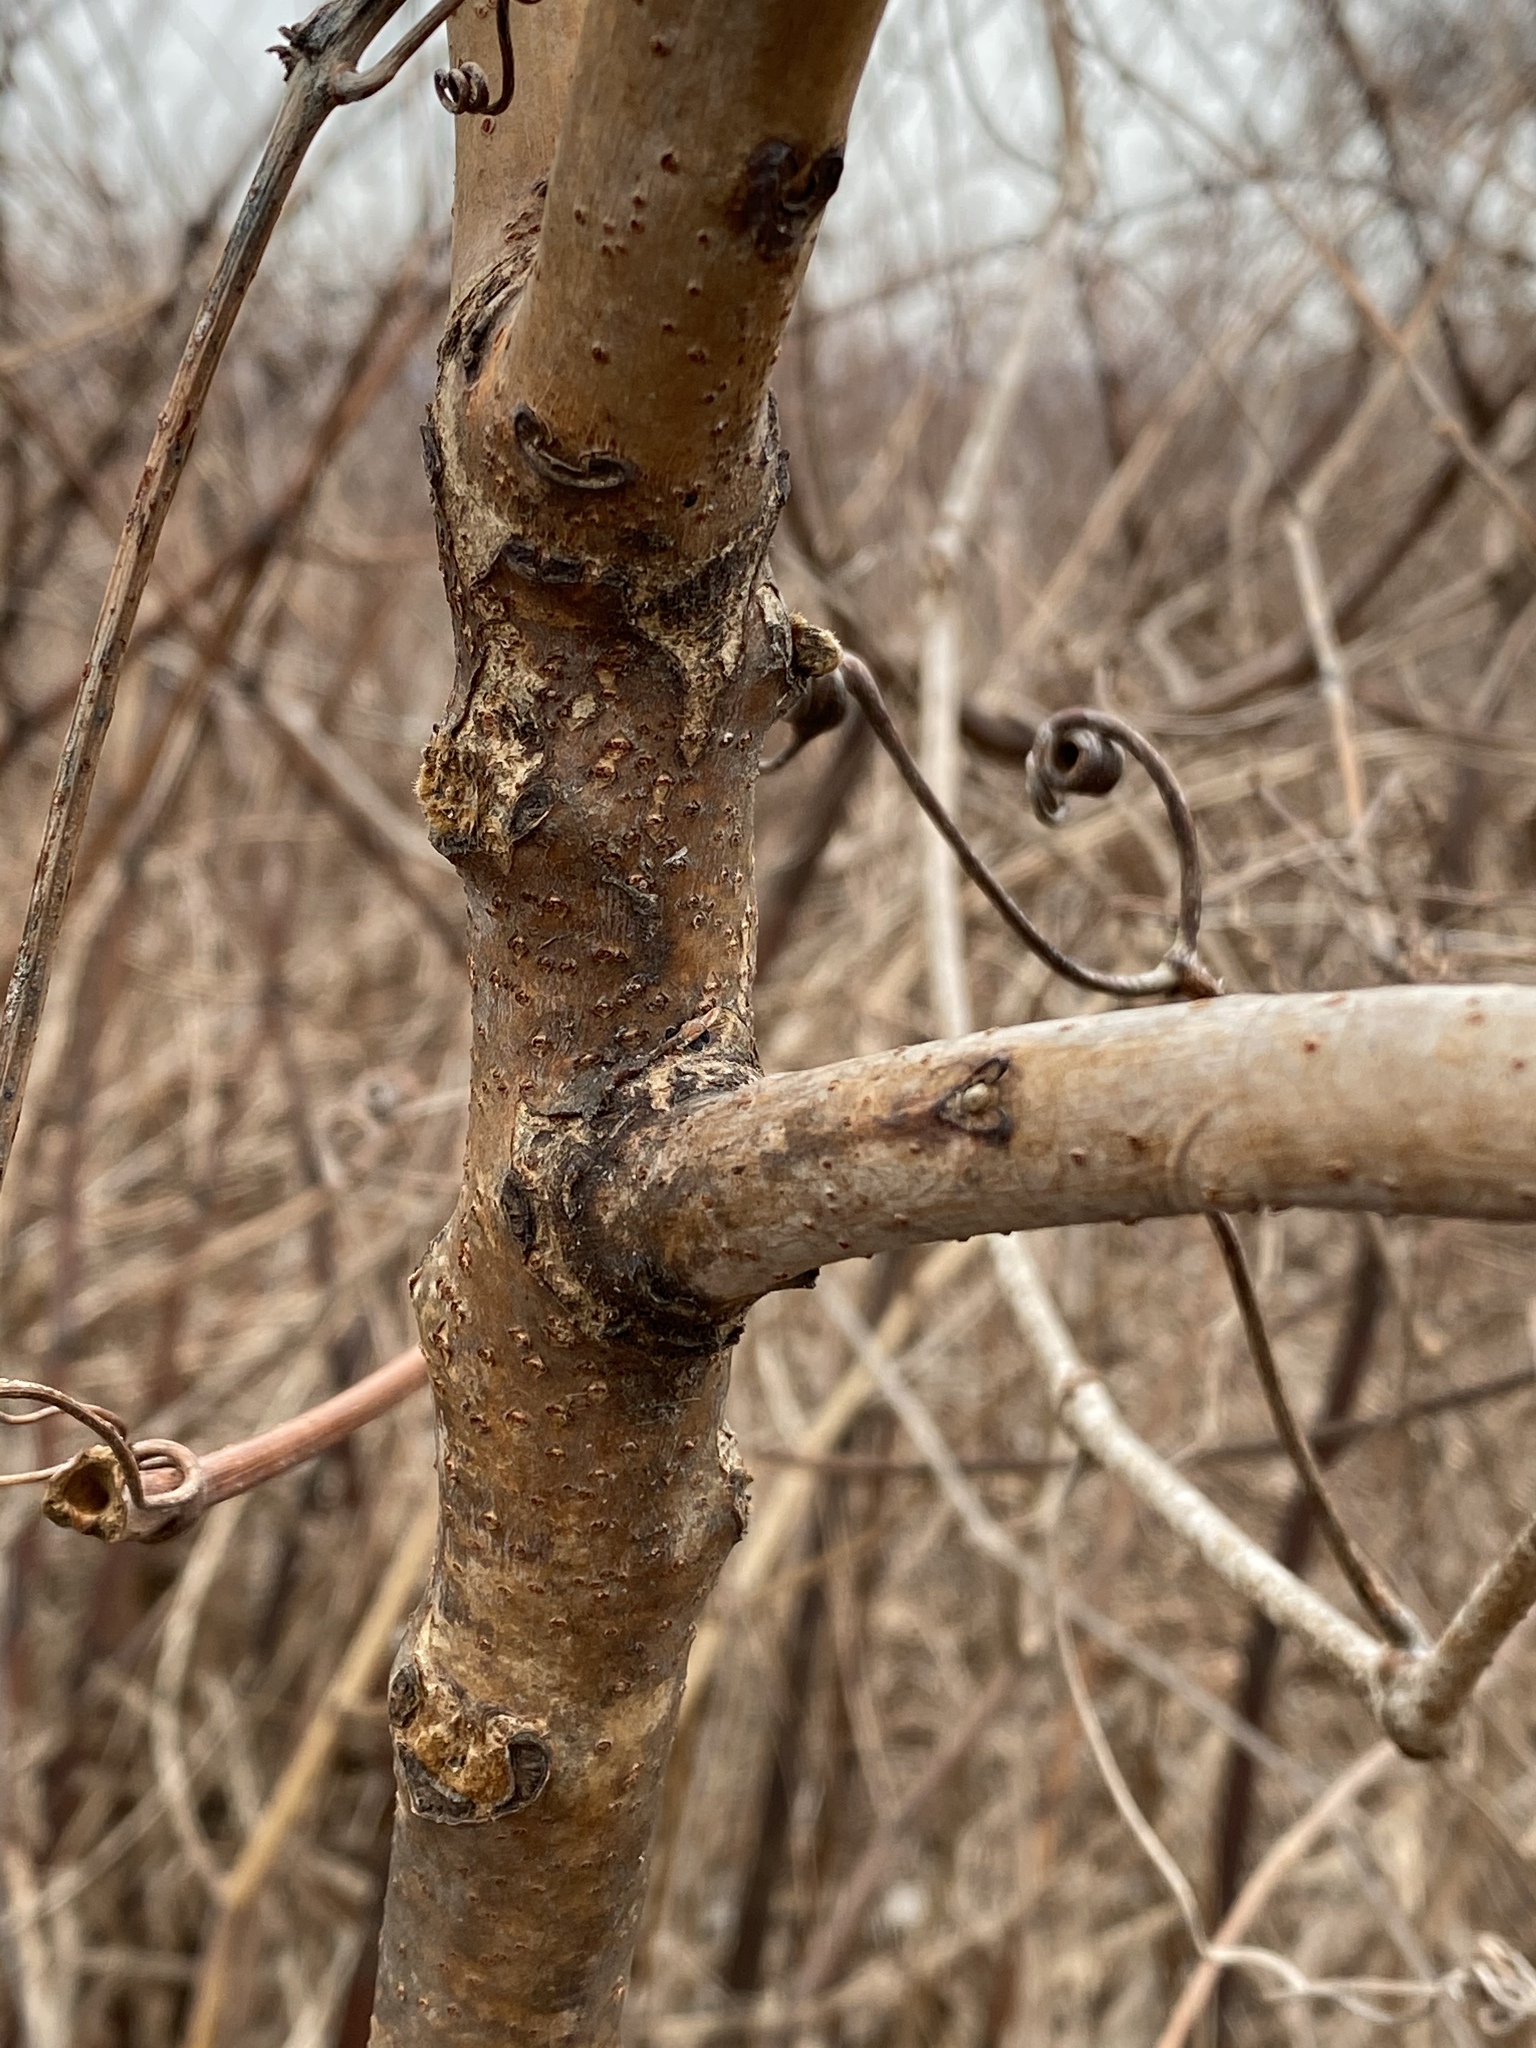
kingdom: Plantae
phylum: Tracheophyta
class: Magnoliopsida
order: Sapindales
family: Anacardiaceae
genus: Rhus
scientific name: Rhus glabra
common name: Scarlet sumac
